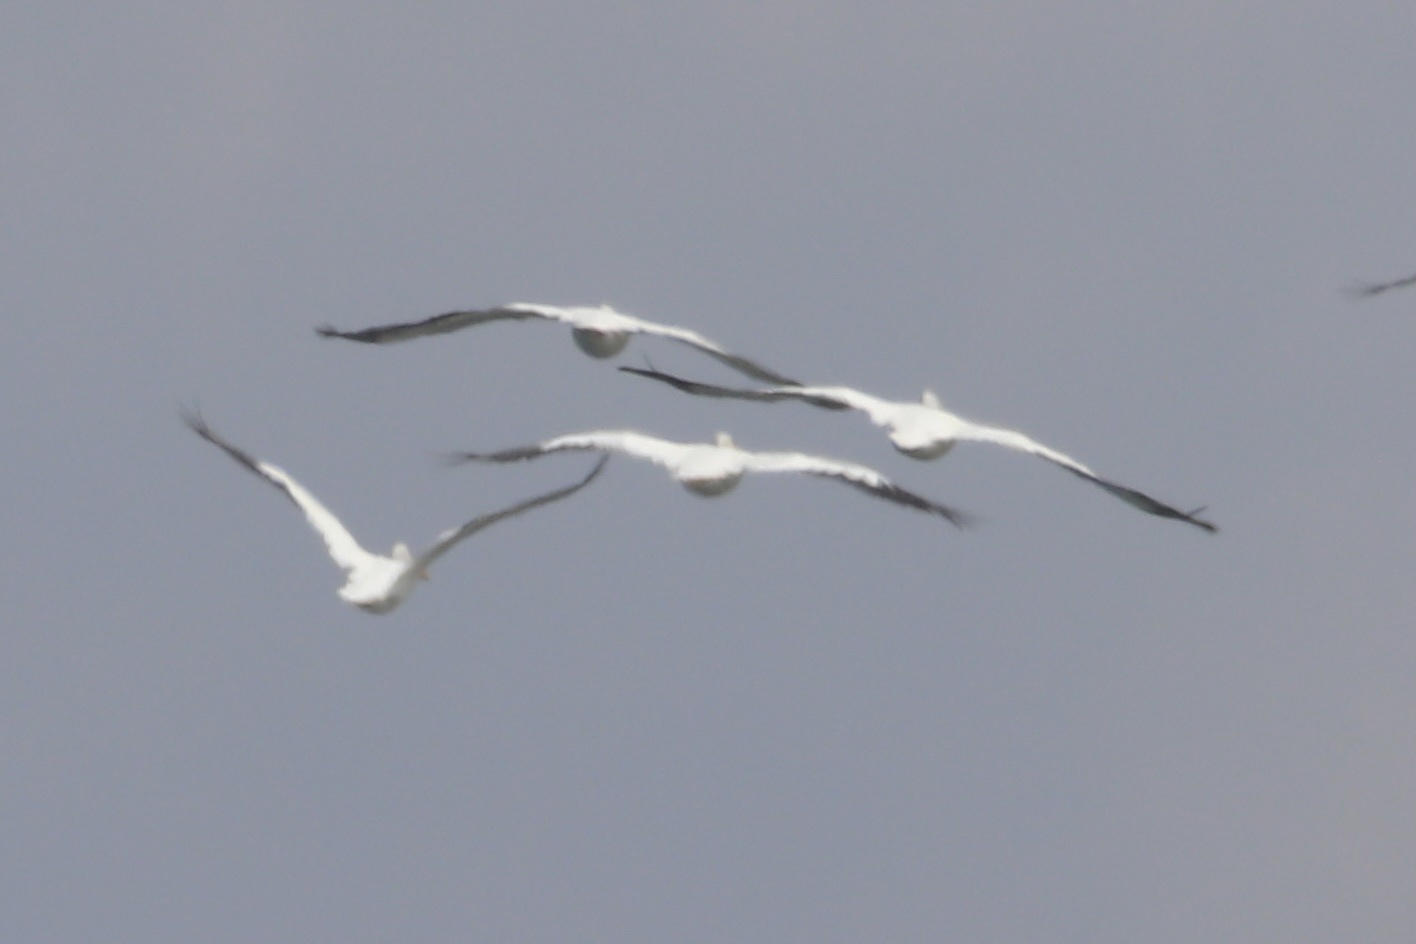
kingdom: Animalia
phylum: Chordata
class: Aves
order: Pelecaniformes
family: Pelecanidae
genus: Pelecanus
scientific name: Pelecanus erythrorhynchos
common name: American white pelican
